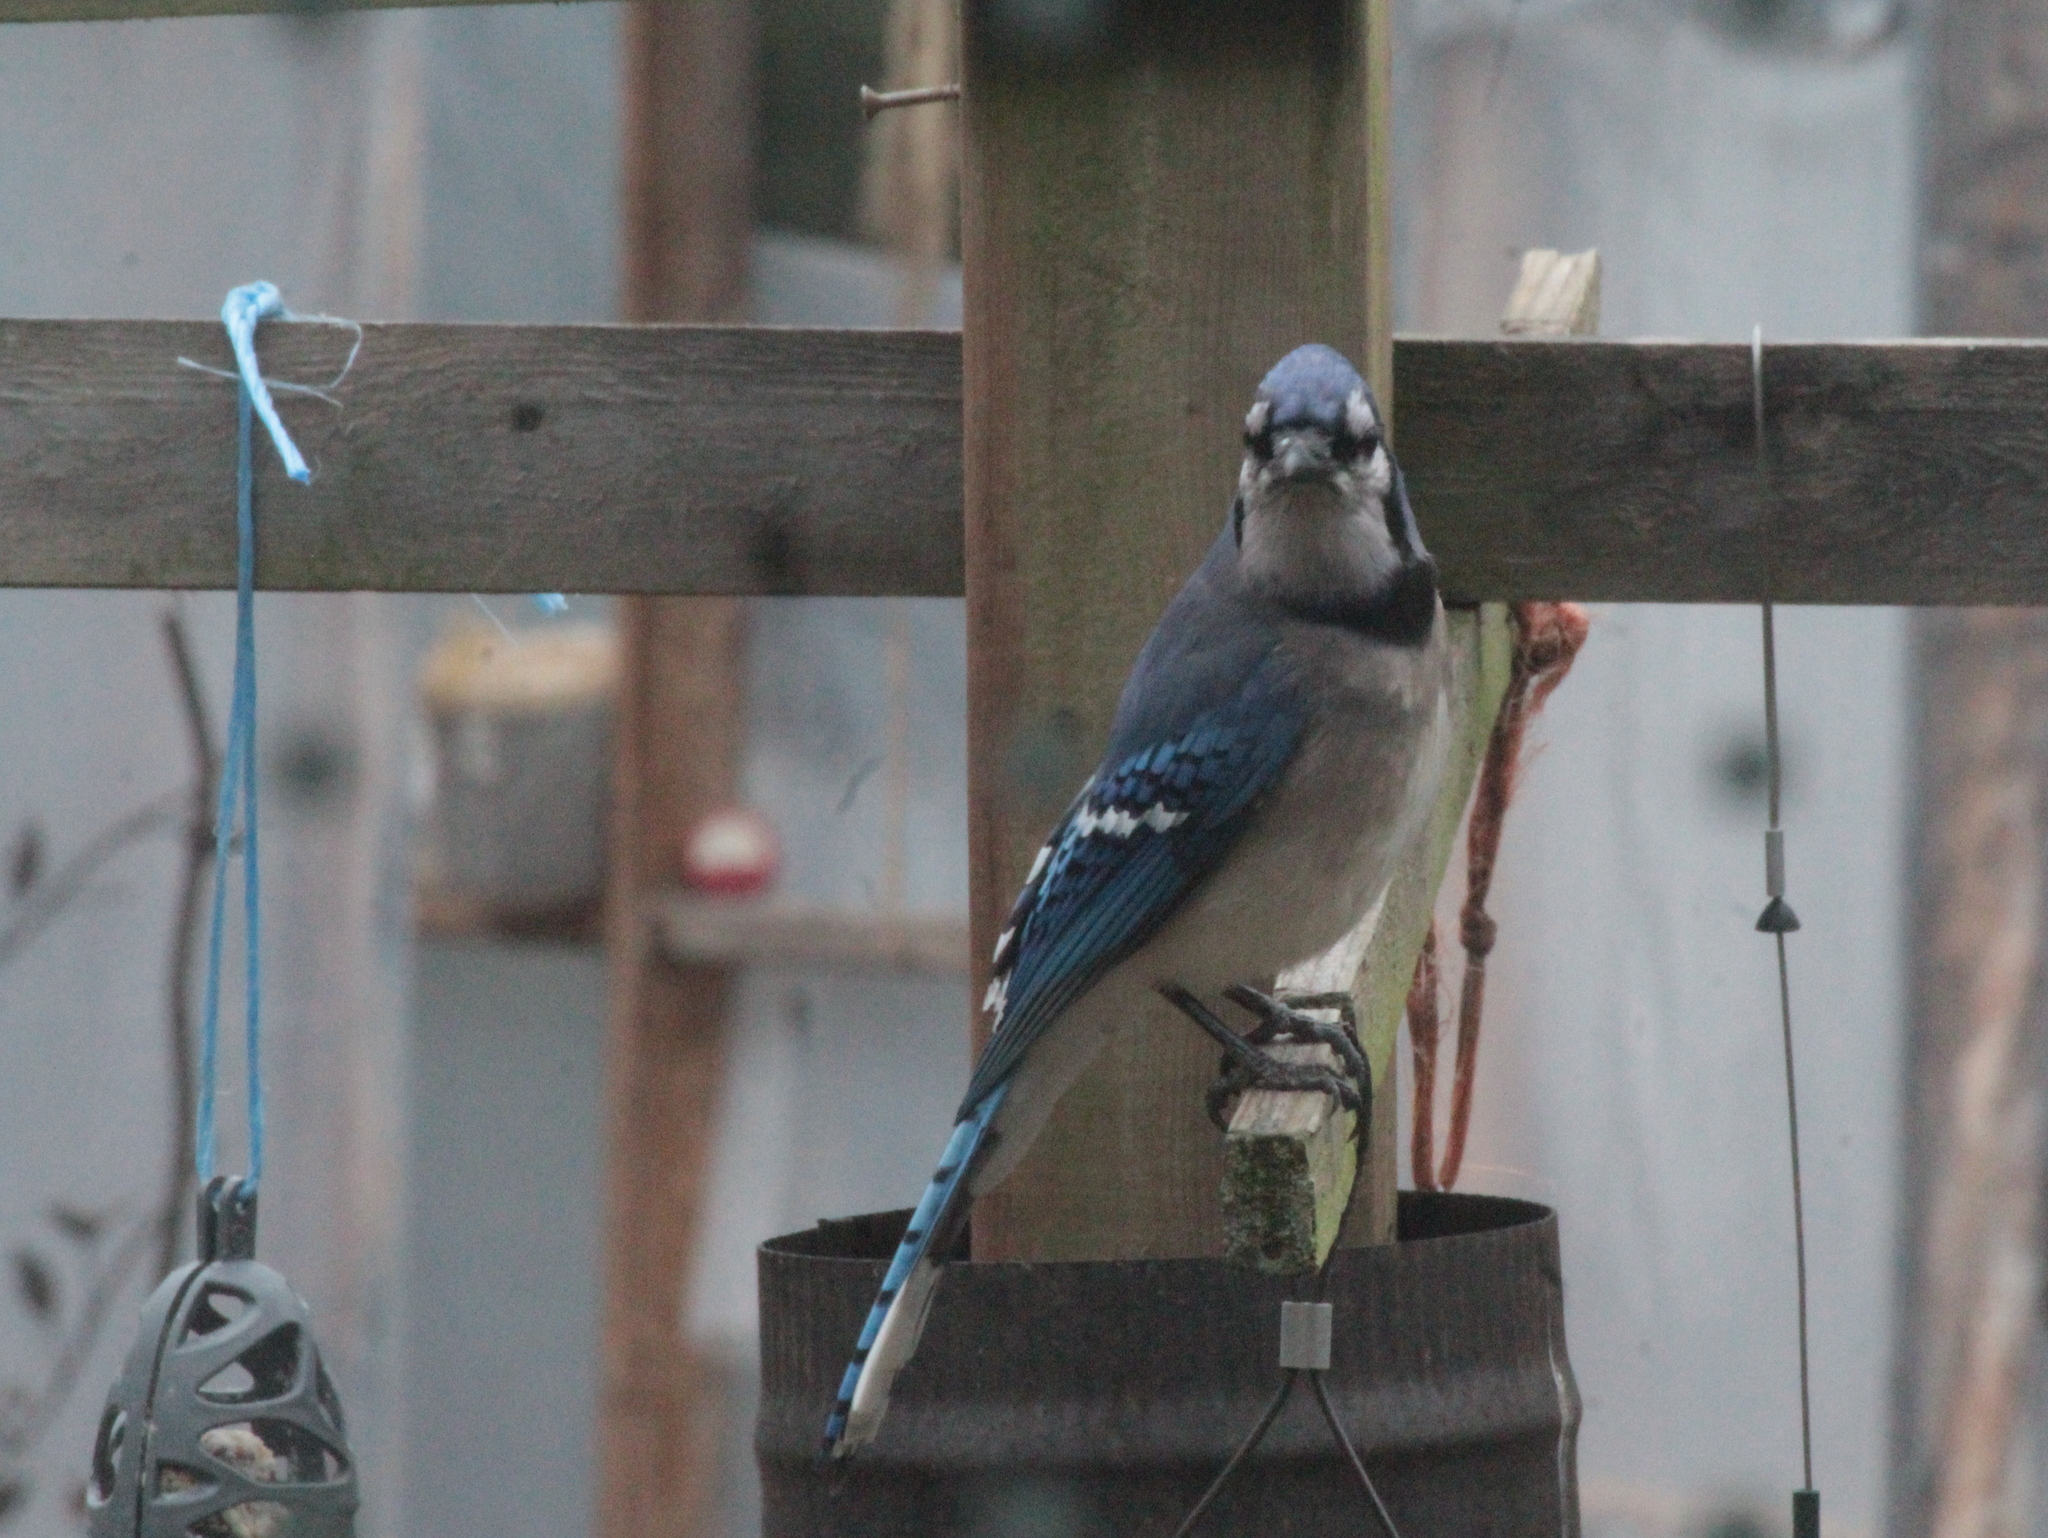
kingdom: Animalia
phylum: Chordata
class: Aves
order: Passeriformes
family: Corvidae
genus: Cyanocitta
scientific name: Cyanocitta cristata
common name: Blue jay
